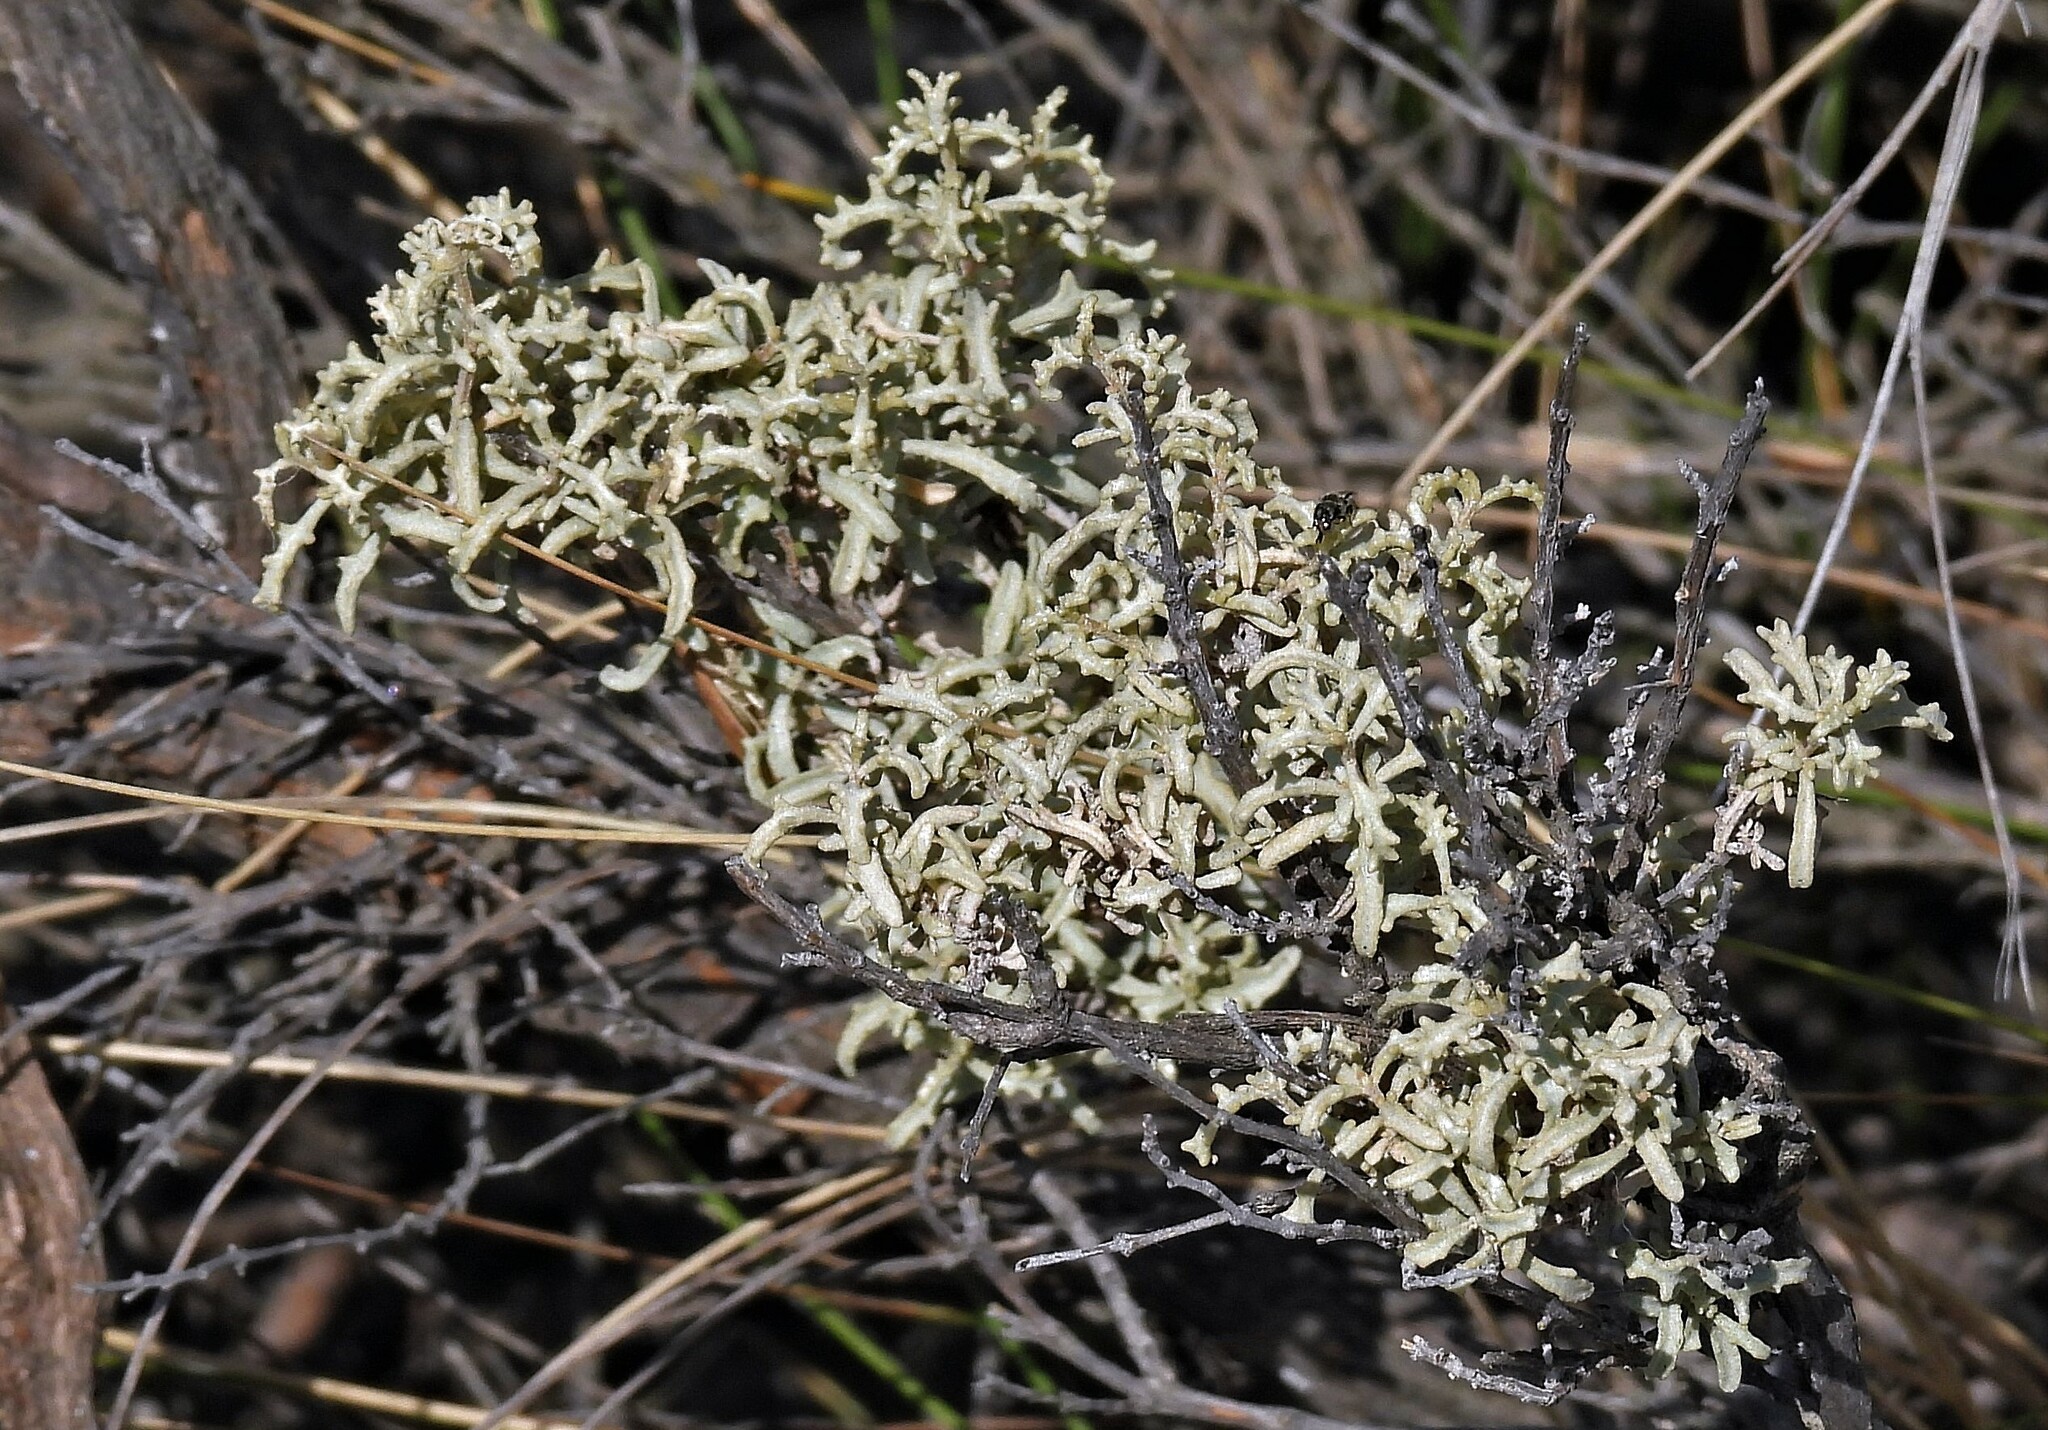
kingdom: Plantae
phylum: Tracheophyta
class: Magnoliopsida
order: Caryophyllales
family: Amaranthaceae
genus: Atriplex
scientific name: Atriplex lampa
